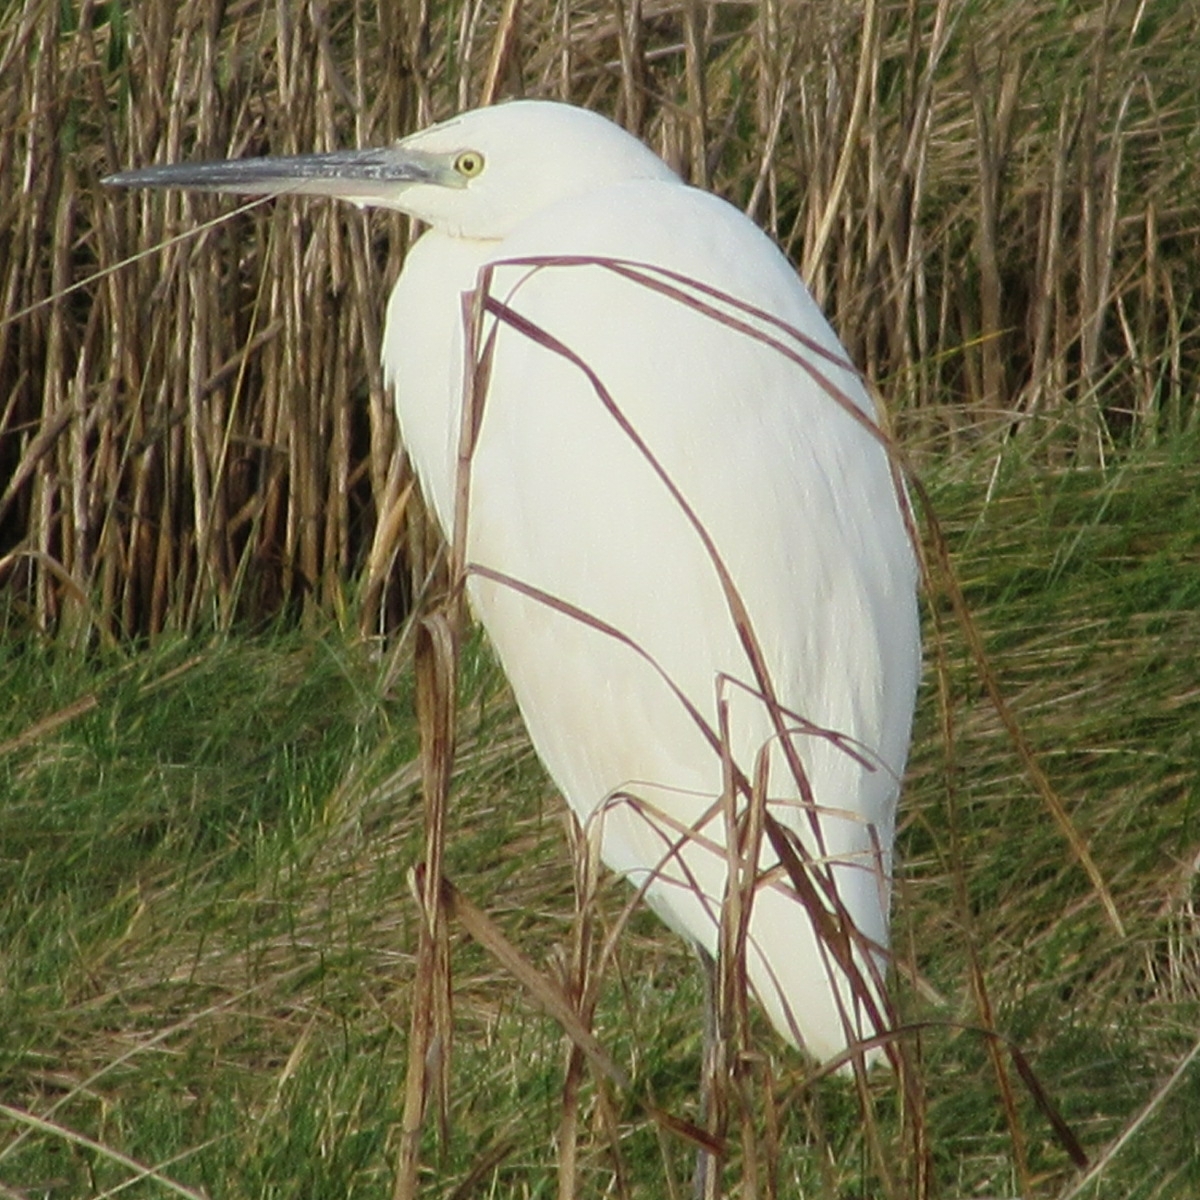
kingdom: Animalia
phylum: Chordata
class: Aves
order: Pelecaniformes
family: Ardeidae
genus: Egretta
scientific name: Egretta garzetta
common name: Little egret
